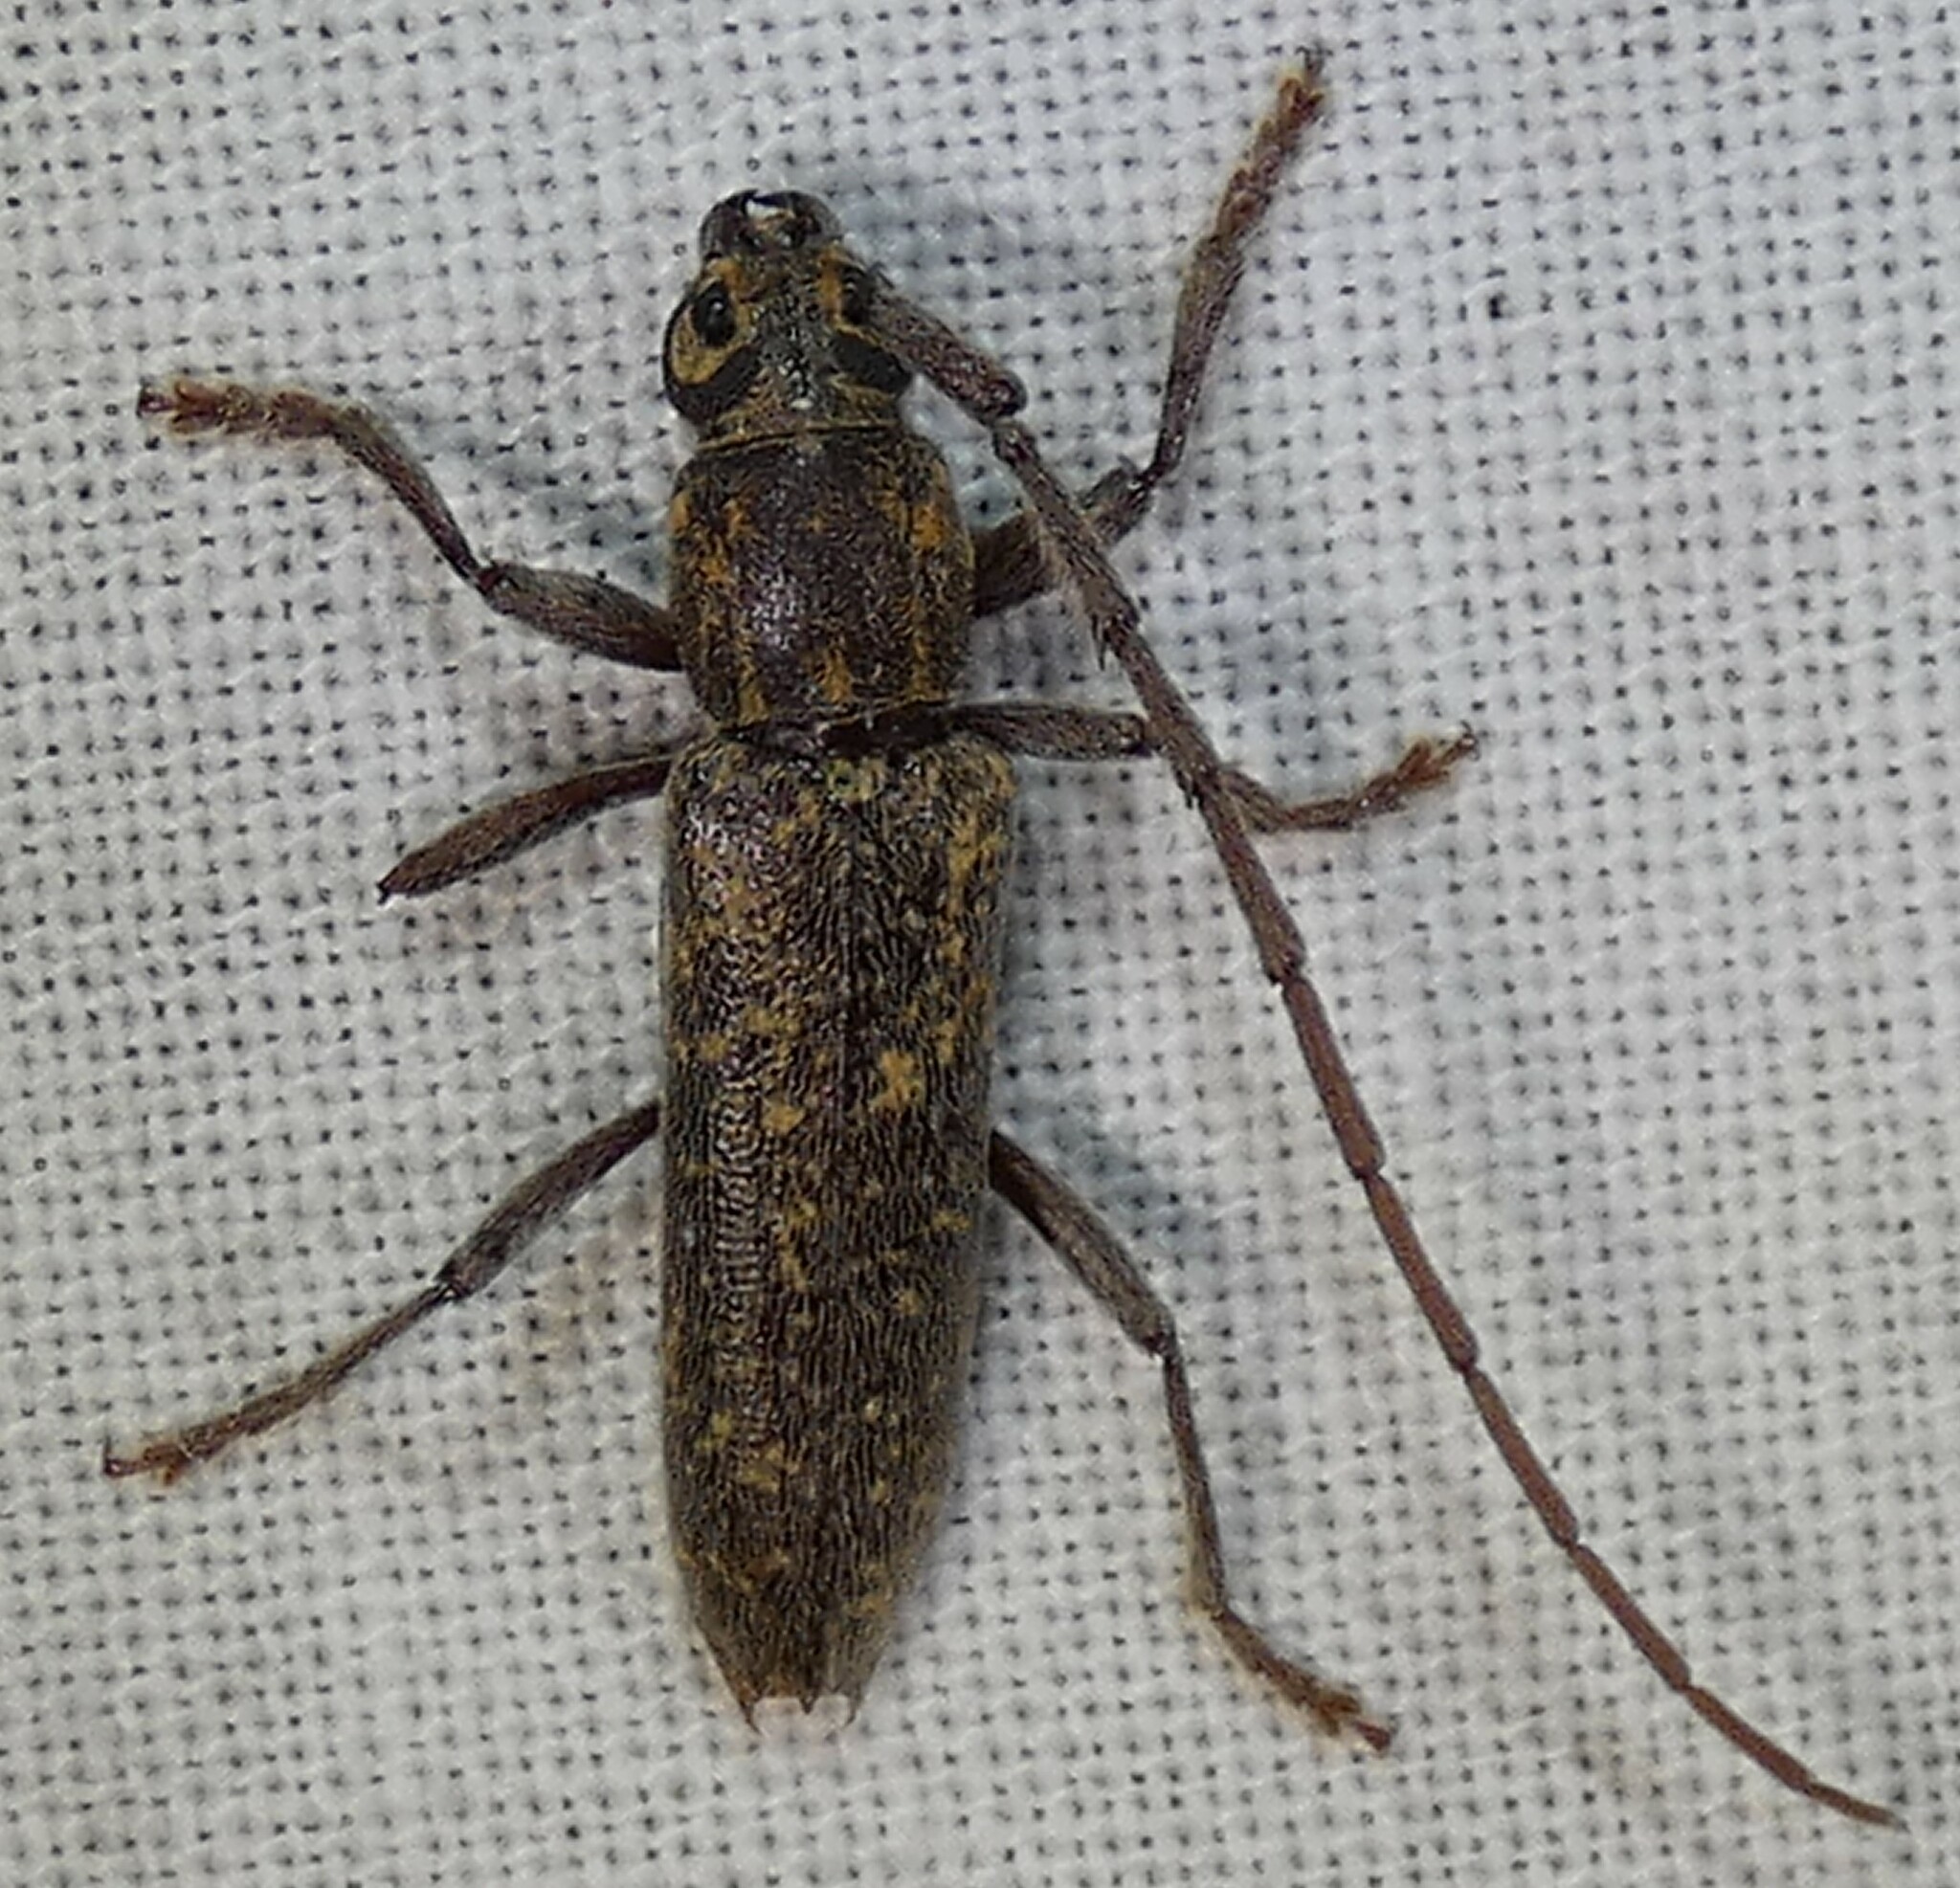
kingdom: Animalia
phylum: Arthropoda
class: Insecta
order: Coleoptera
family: Cerambycidae
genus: Anelaphus
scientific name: Anelaphus villosus
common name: Twig pruner
